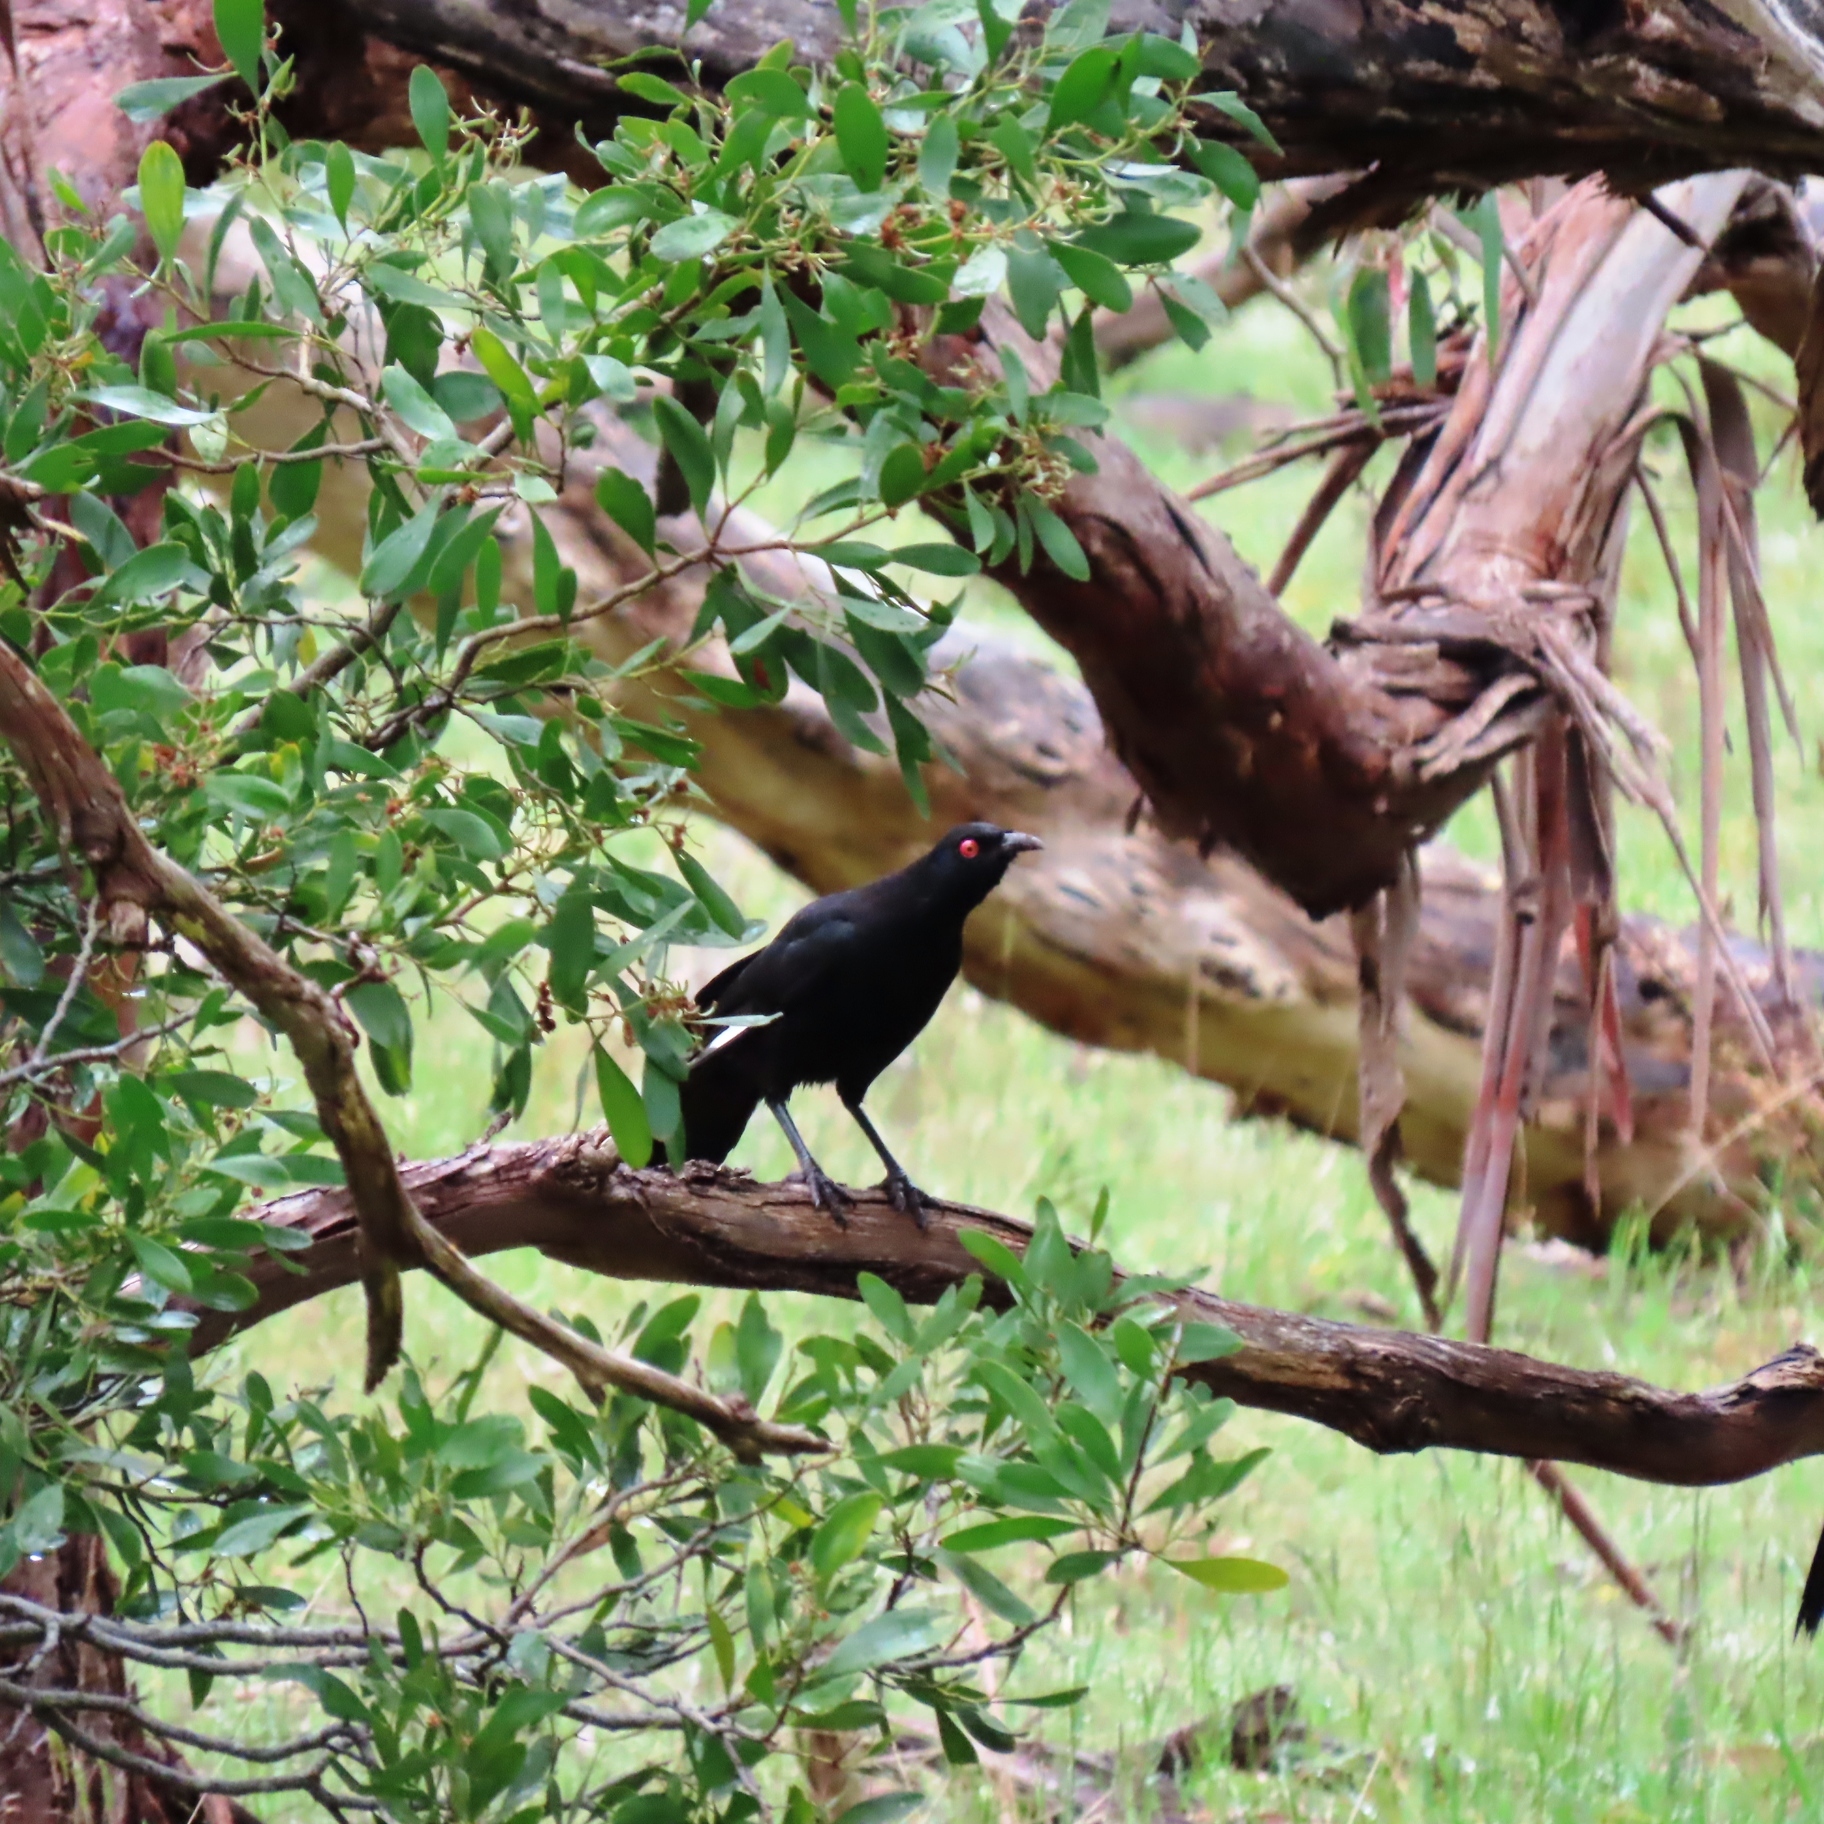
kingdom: Animalia
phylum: Chordata
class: Aves
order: Passeriformes
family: Corcoracidae
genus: Corcorax
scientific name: Corcorax melanoramphos
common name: White-winged chough
